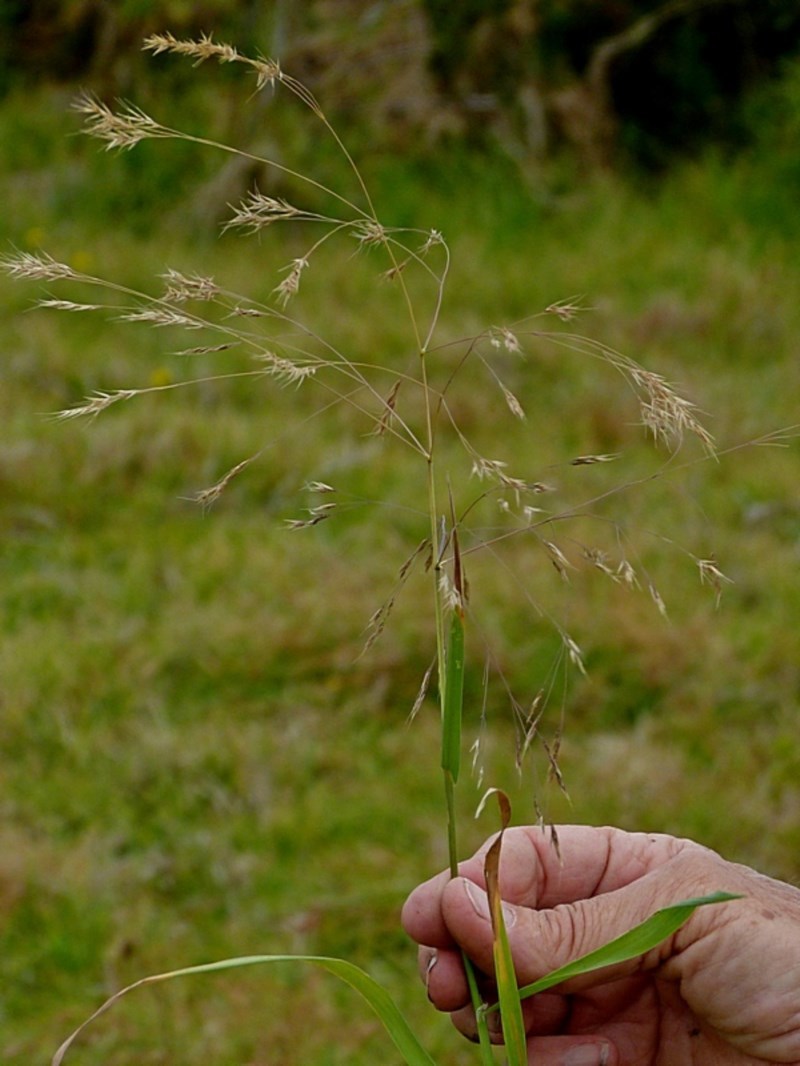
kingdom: Plantae
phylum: Tracheophyta
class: Liliopsida
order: Poales
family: Poaceae
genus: Lachnagrostis
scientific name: Lachnagrostis filiformis
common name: Bentgrass
